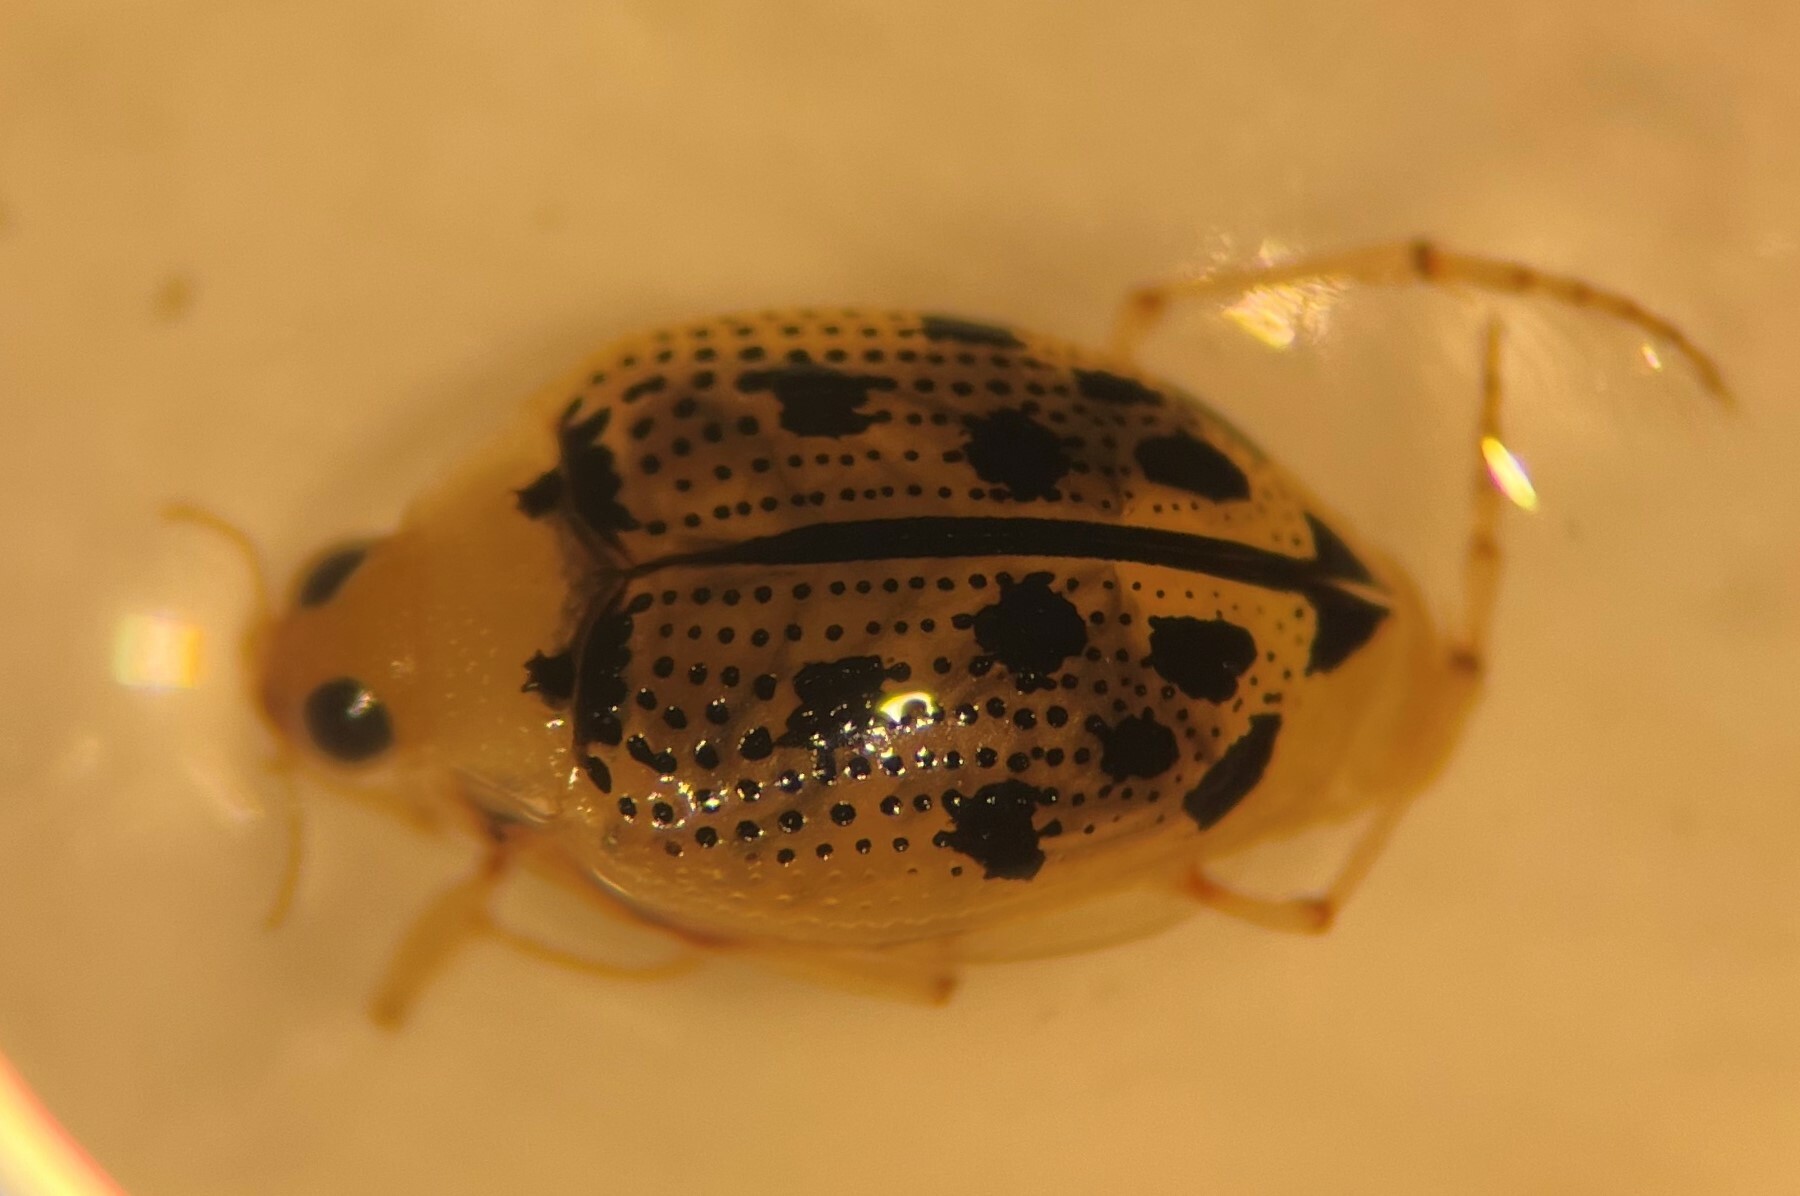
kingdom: Animalia
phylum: Arthropoda
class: Insecta
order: Coleoptera
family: Haliplidae
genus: Peltodytes
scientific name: Peltodytes litoralis
